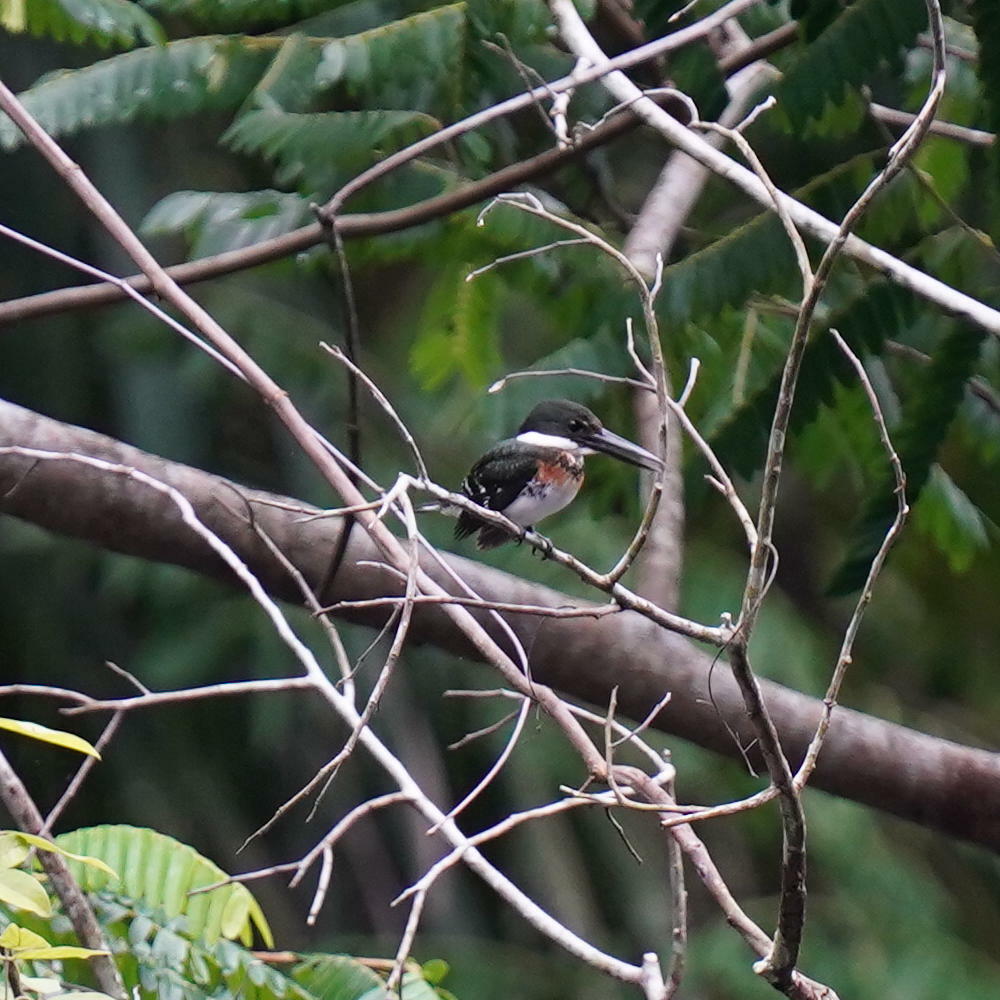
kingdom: Animalia
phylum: Chordata
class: Aves
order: Coraciiformes
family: Alcedinidae
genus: Chloroceryle
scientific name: Chloroceryle americana
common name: Green kingfisher
